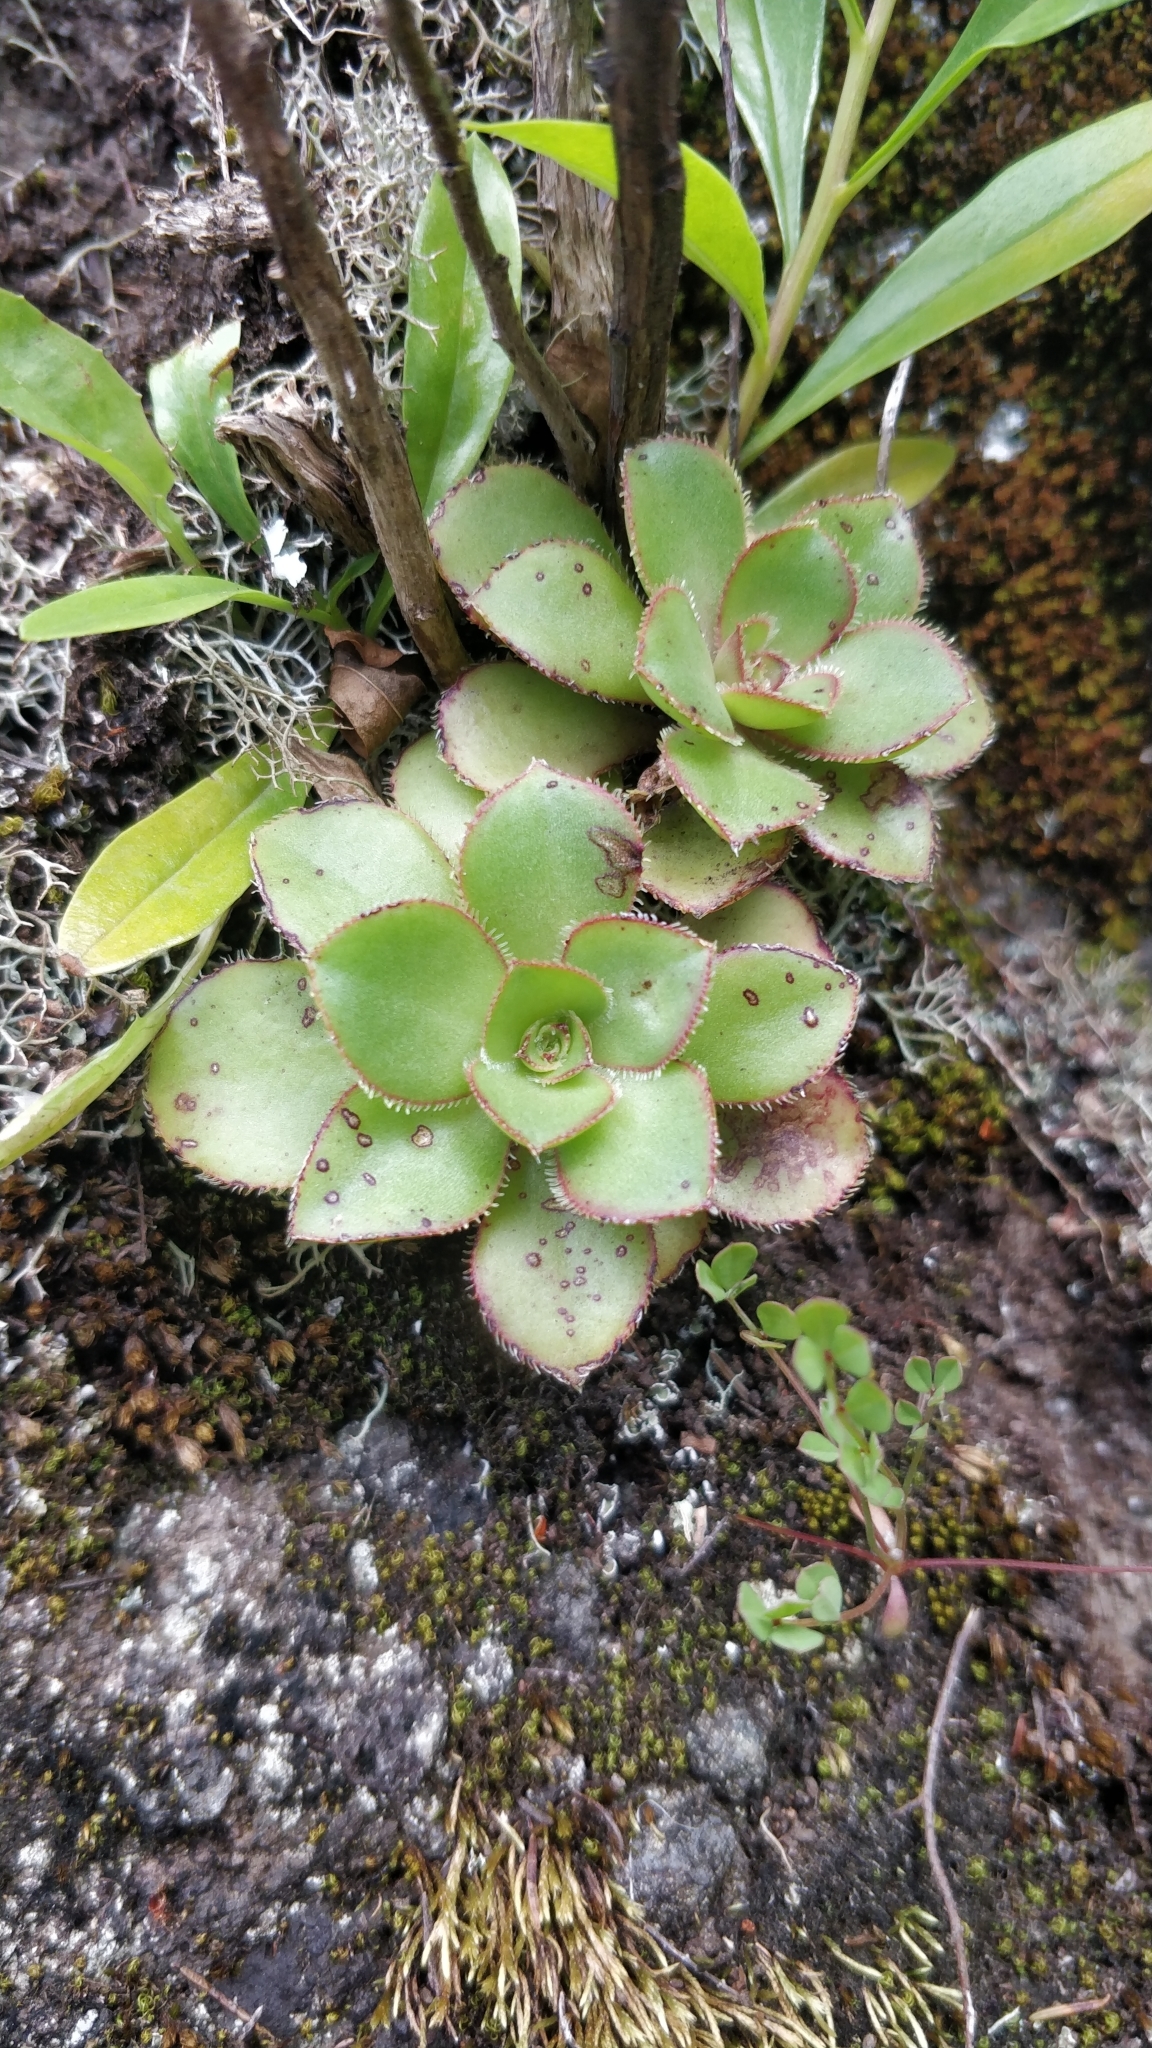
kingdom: Plantae
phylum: Tracheophyta
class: Magnoliopsida
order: Saxifragales
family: Crassulaceae
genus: Aeonium
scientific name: Aeonium glutinosum
